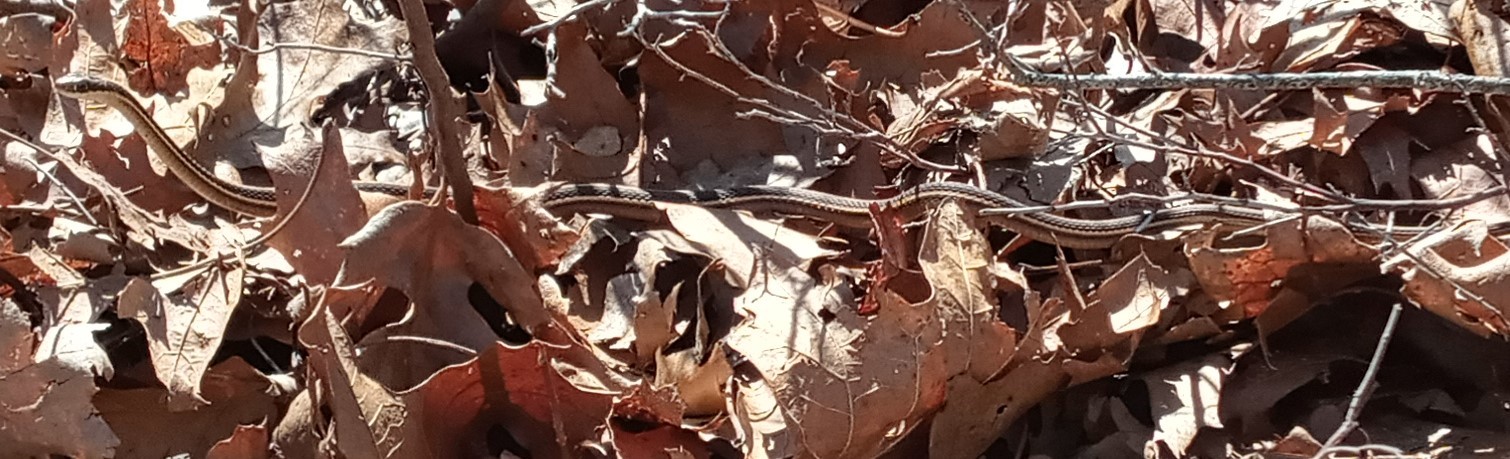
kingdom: Animalia
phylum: Chordata
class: Squamata
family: Colubridae
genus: Thamnophis
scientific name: Thamnophis saurita
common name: Eastern ribbonsnake
